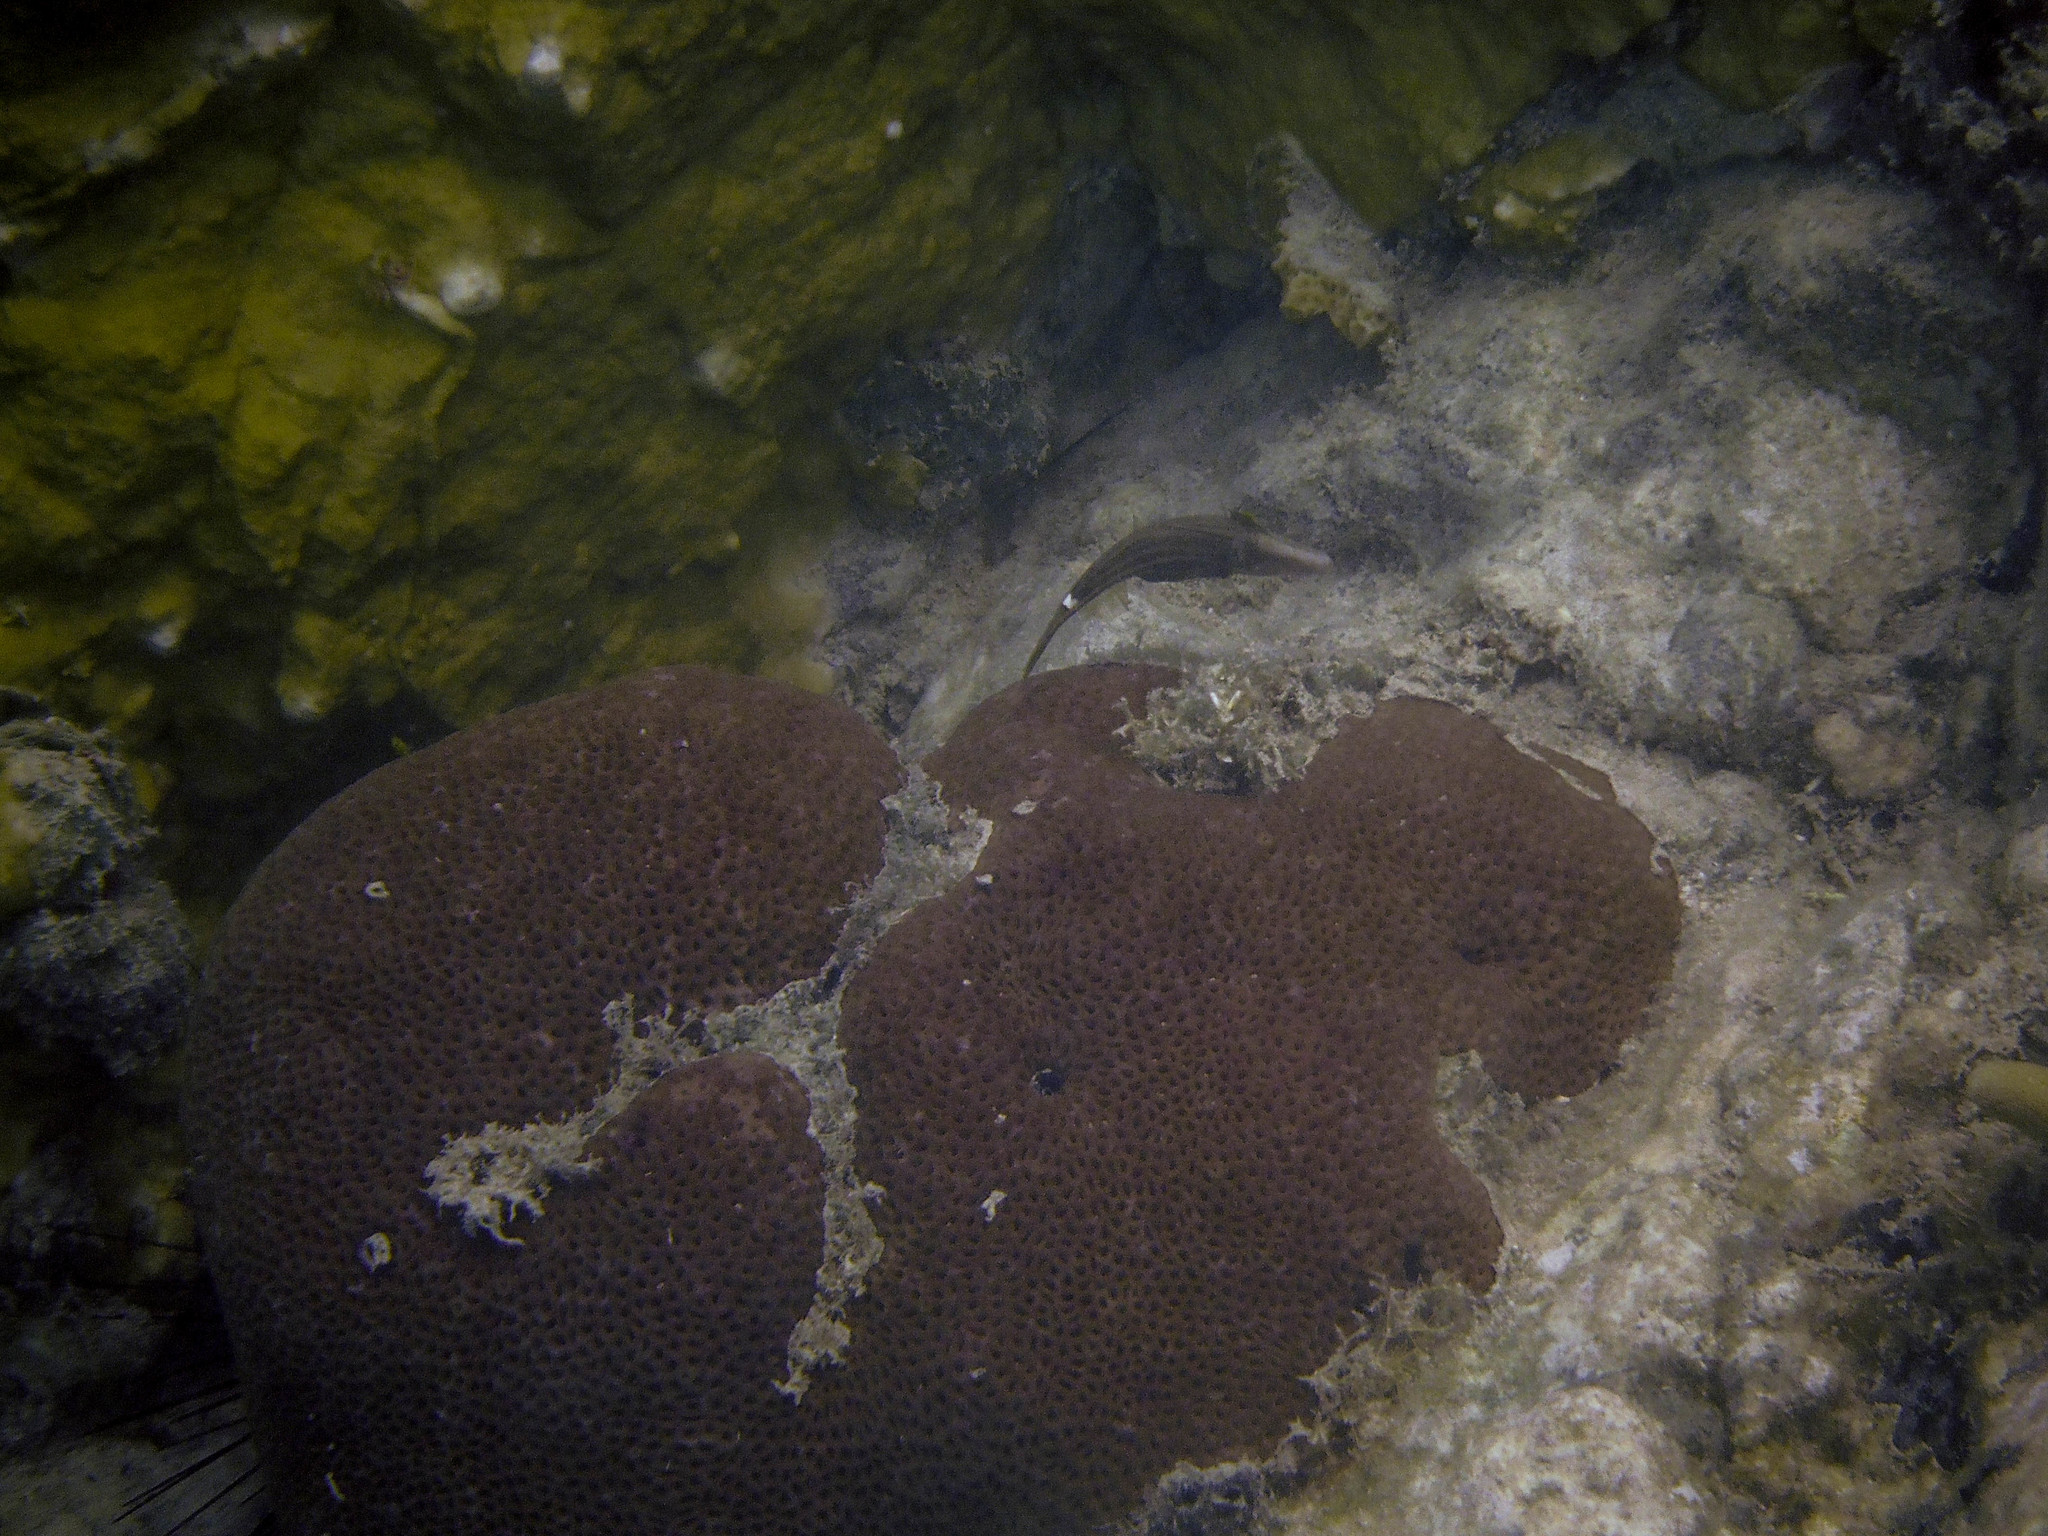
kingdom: Animalia
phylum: Chordata
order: Tetraodontiformes
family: Monacanthidae
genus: Cantherhines
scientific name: Cantherhines pullus
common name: Orangespotted filefish
